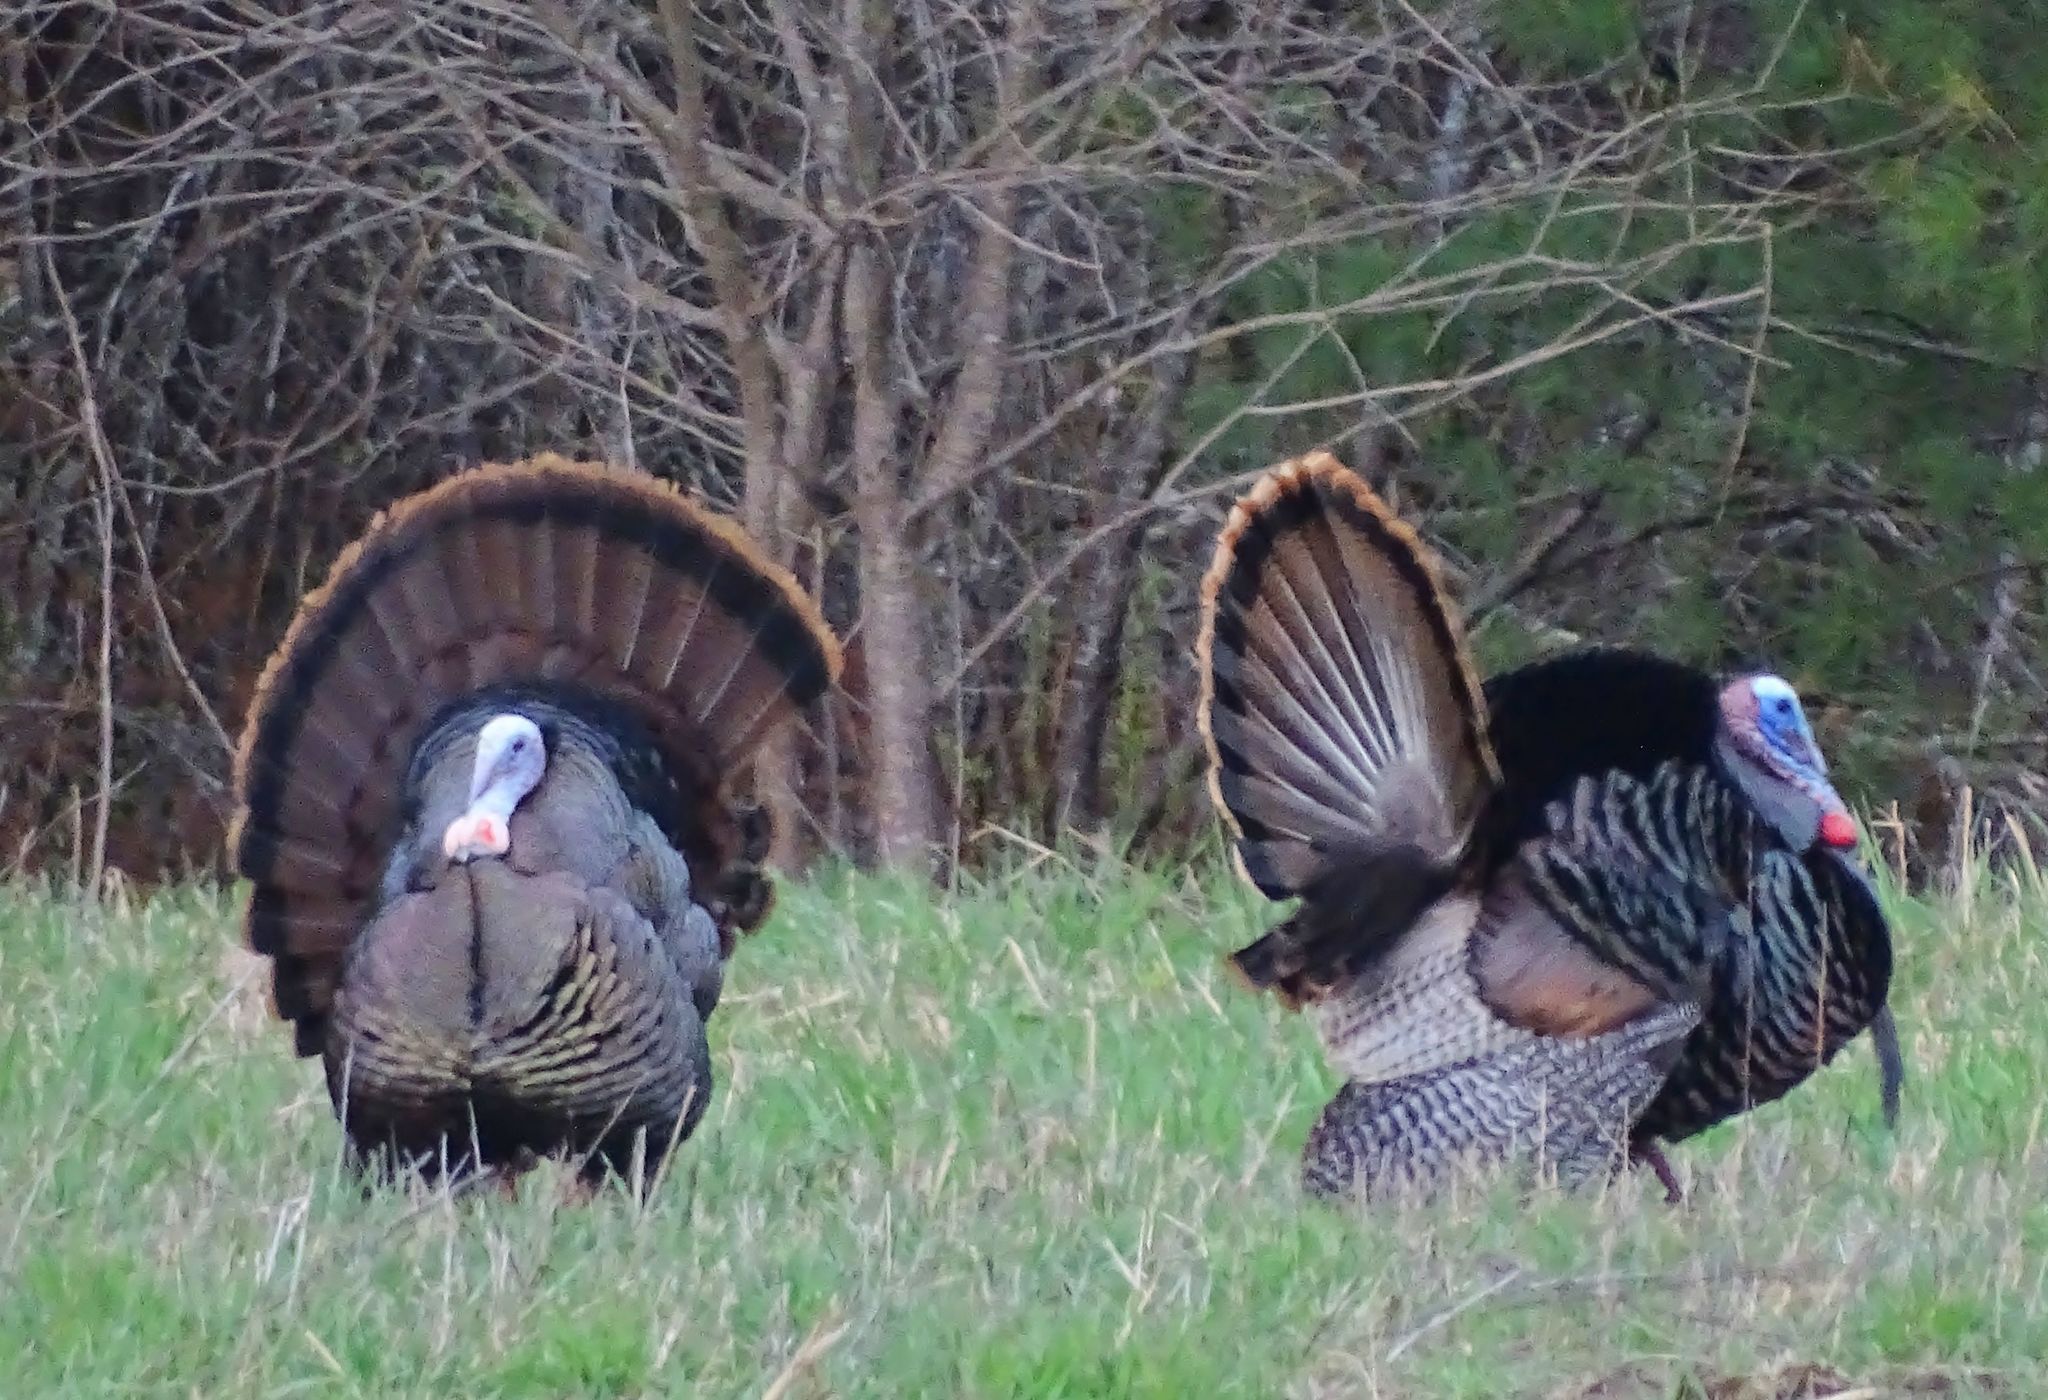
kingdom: Animalia
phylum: Chordata
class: Aves
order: Galliformes
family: Phasianidae
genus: Meleagris
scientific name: Meleagris gallopavo
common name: Wild turkey
